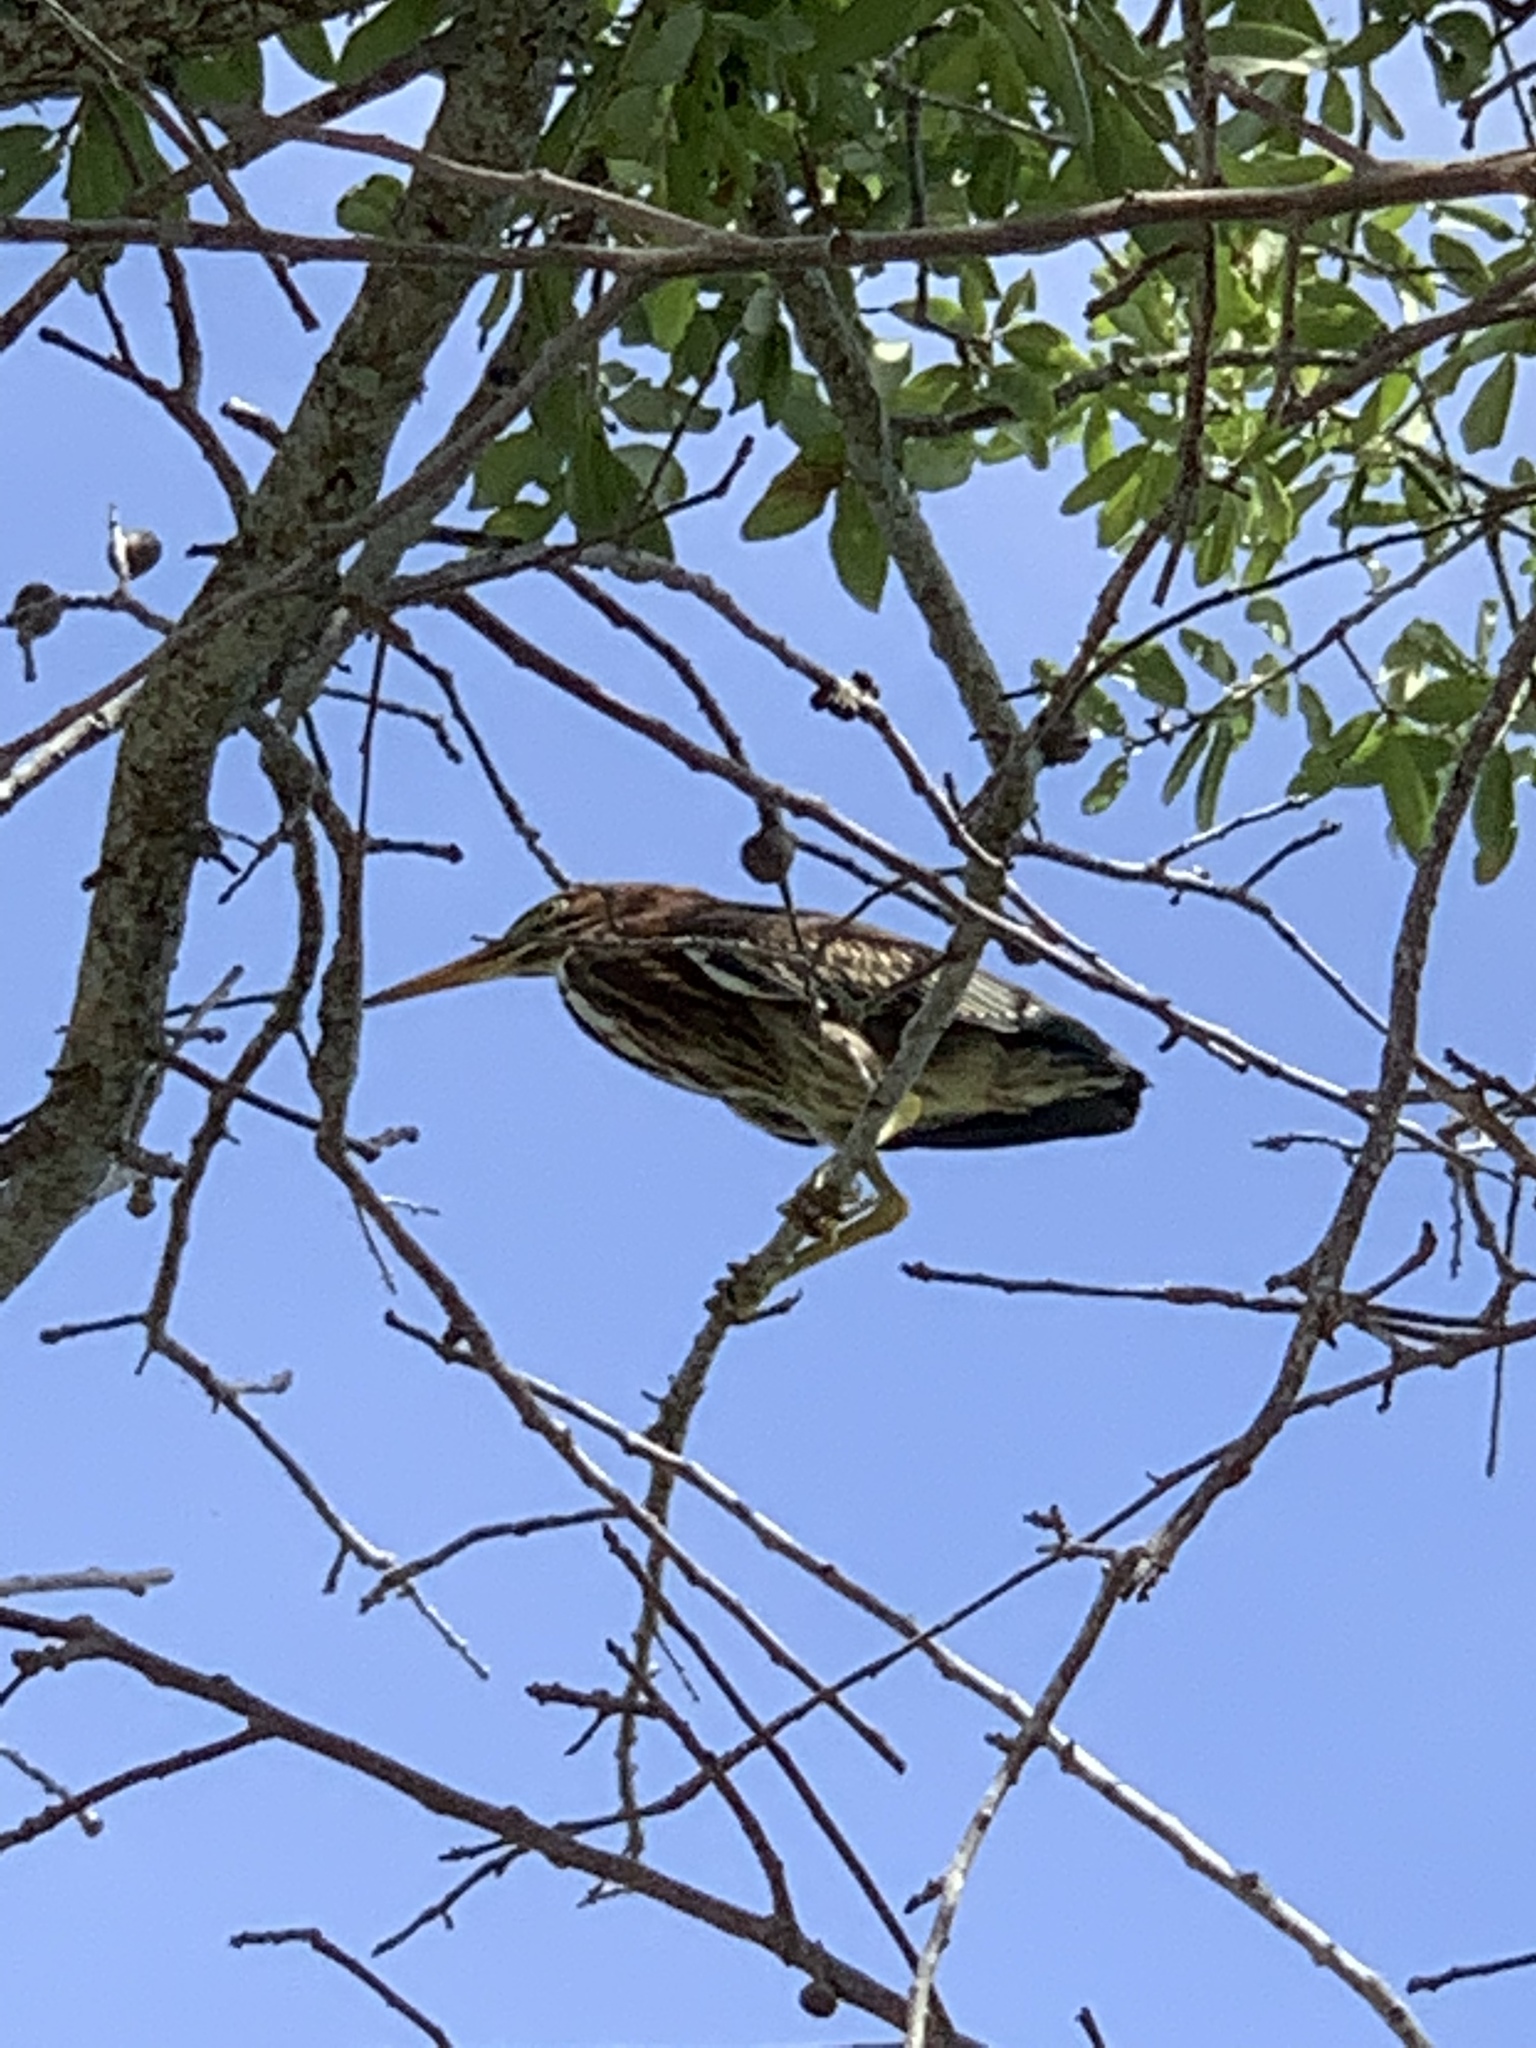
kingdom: Animalia
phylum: Chordata
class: Aves
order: Pelecaniformes
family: Ardeidae
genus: Butorides
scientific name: Butorides virescens
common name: Green heron
